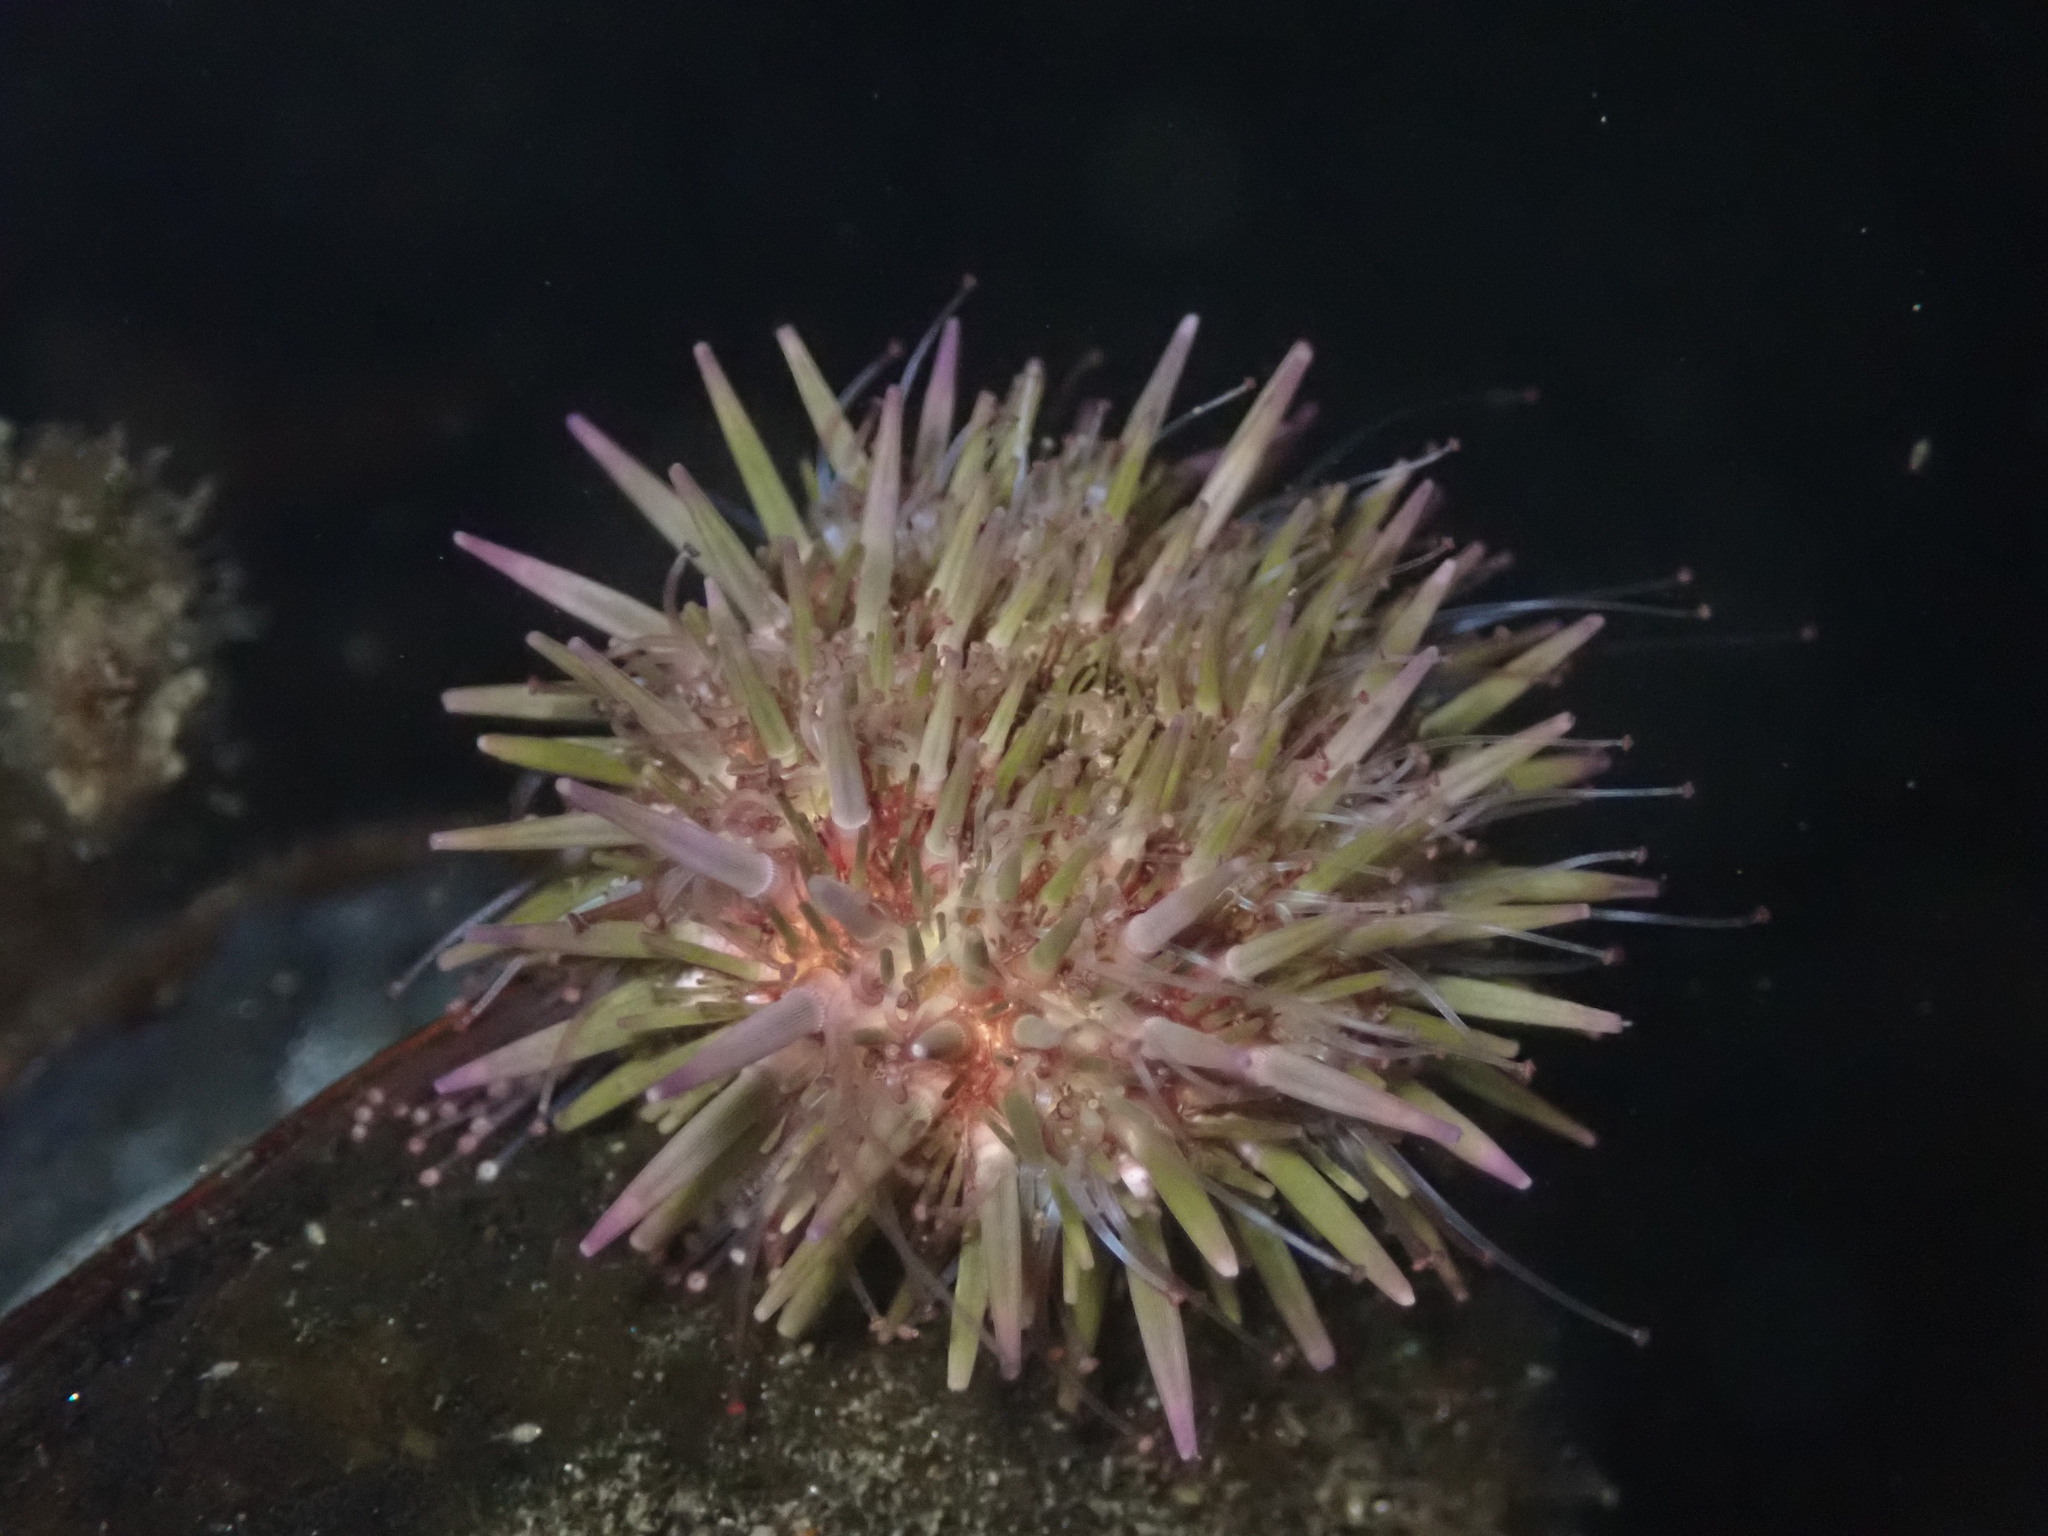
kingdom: Animalia
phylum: Echinodermata
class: Echinoidea
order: Camarodonta
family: Strongylocentrotidae
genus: Strongylocentrotus
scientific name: Strongylocentrotus purpuratus
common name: Purple sea urchin
